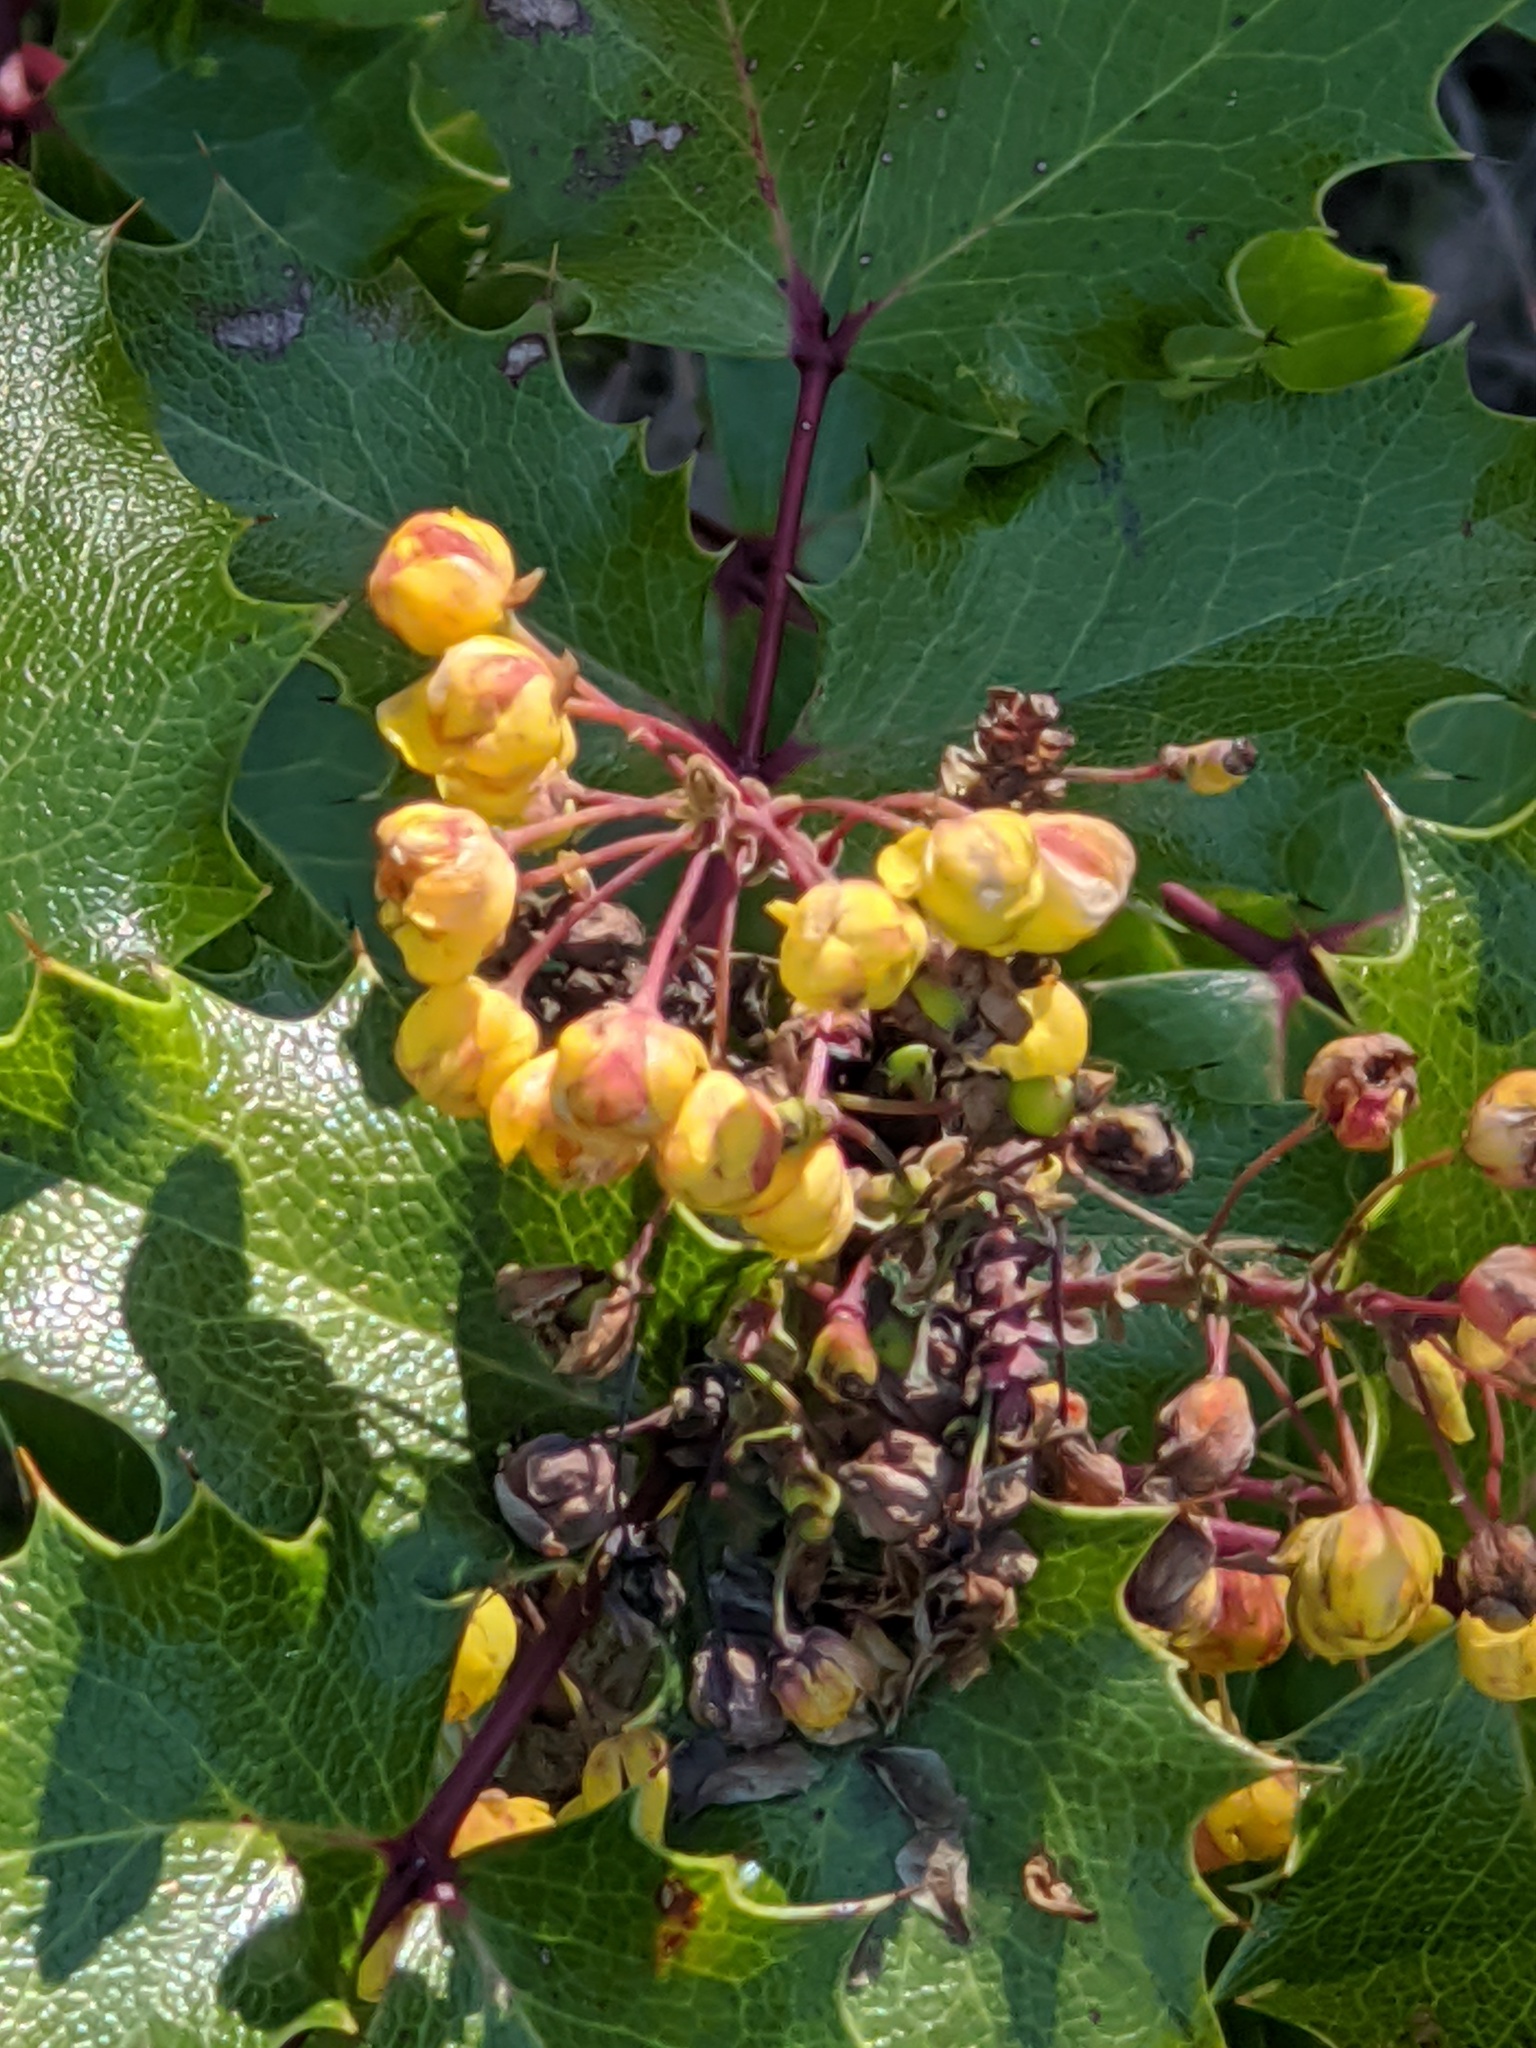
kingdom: Plantae
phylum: Tracheophyta
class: Magnoliopsida
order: Ranunculales
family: Berberidaceae
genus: Mahonia
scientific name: Mahonia
